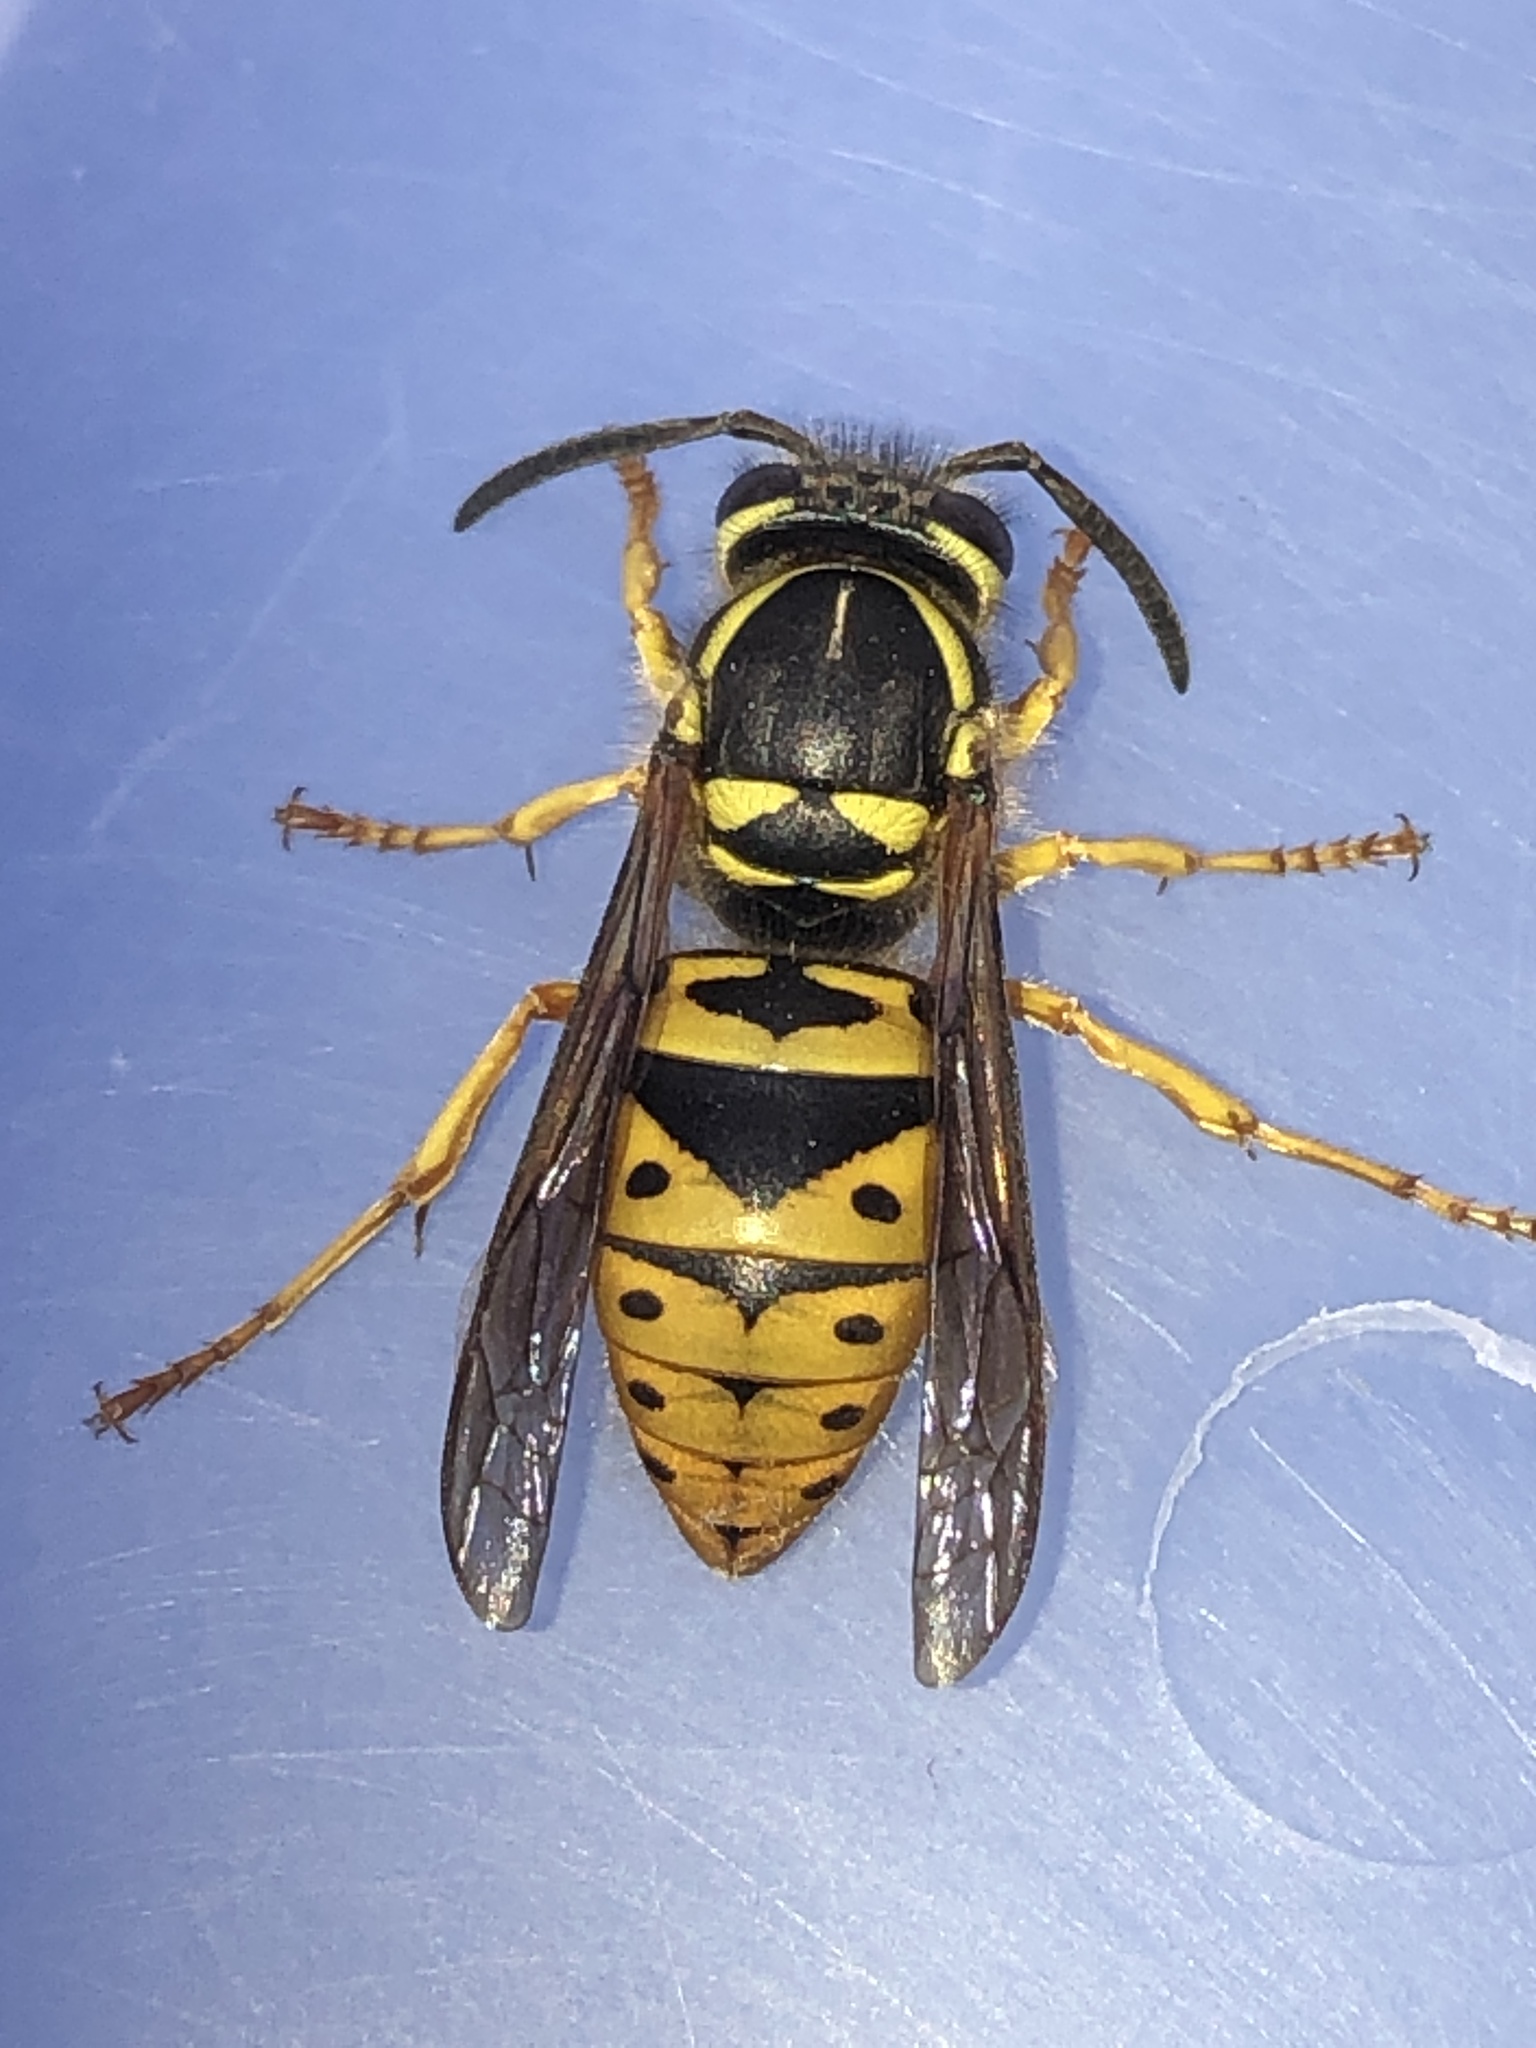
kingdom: Animalia
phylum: Arthropoda
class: Insecta
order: Hymenoptera
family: Vespidae
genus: Vespula
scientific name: Vespula maculifrons
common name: Eastern yellowjacket
